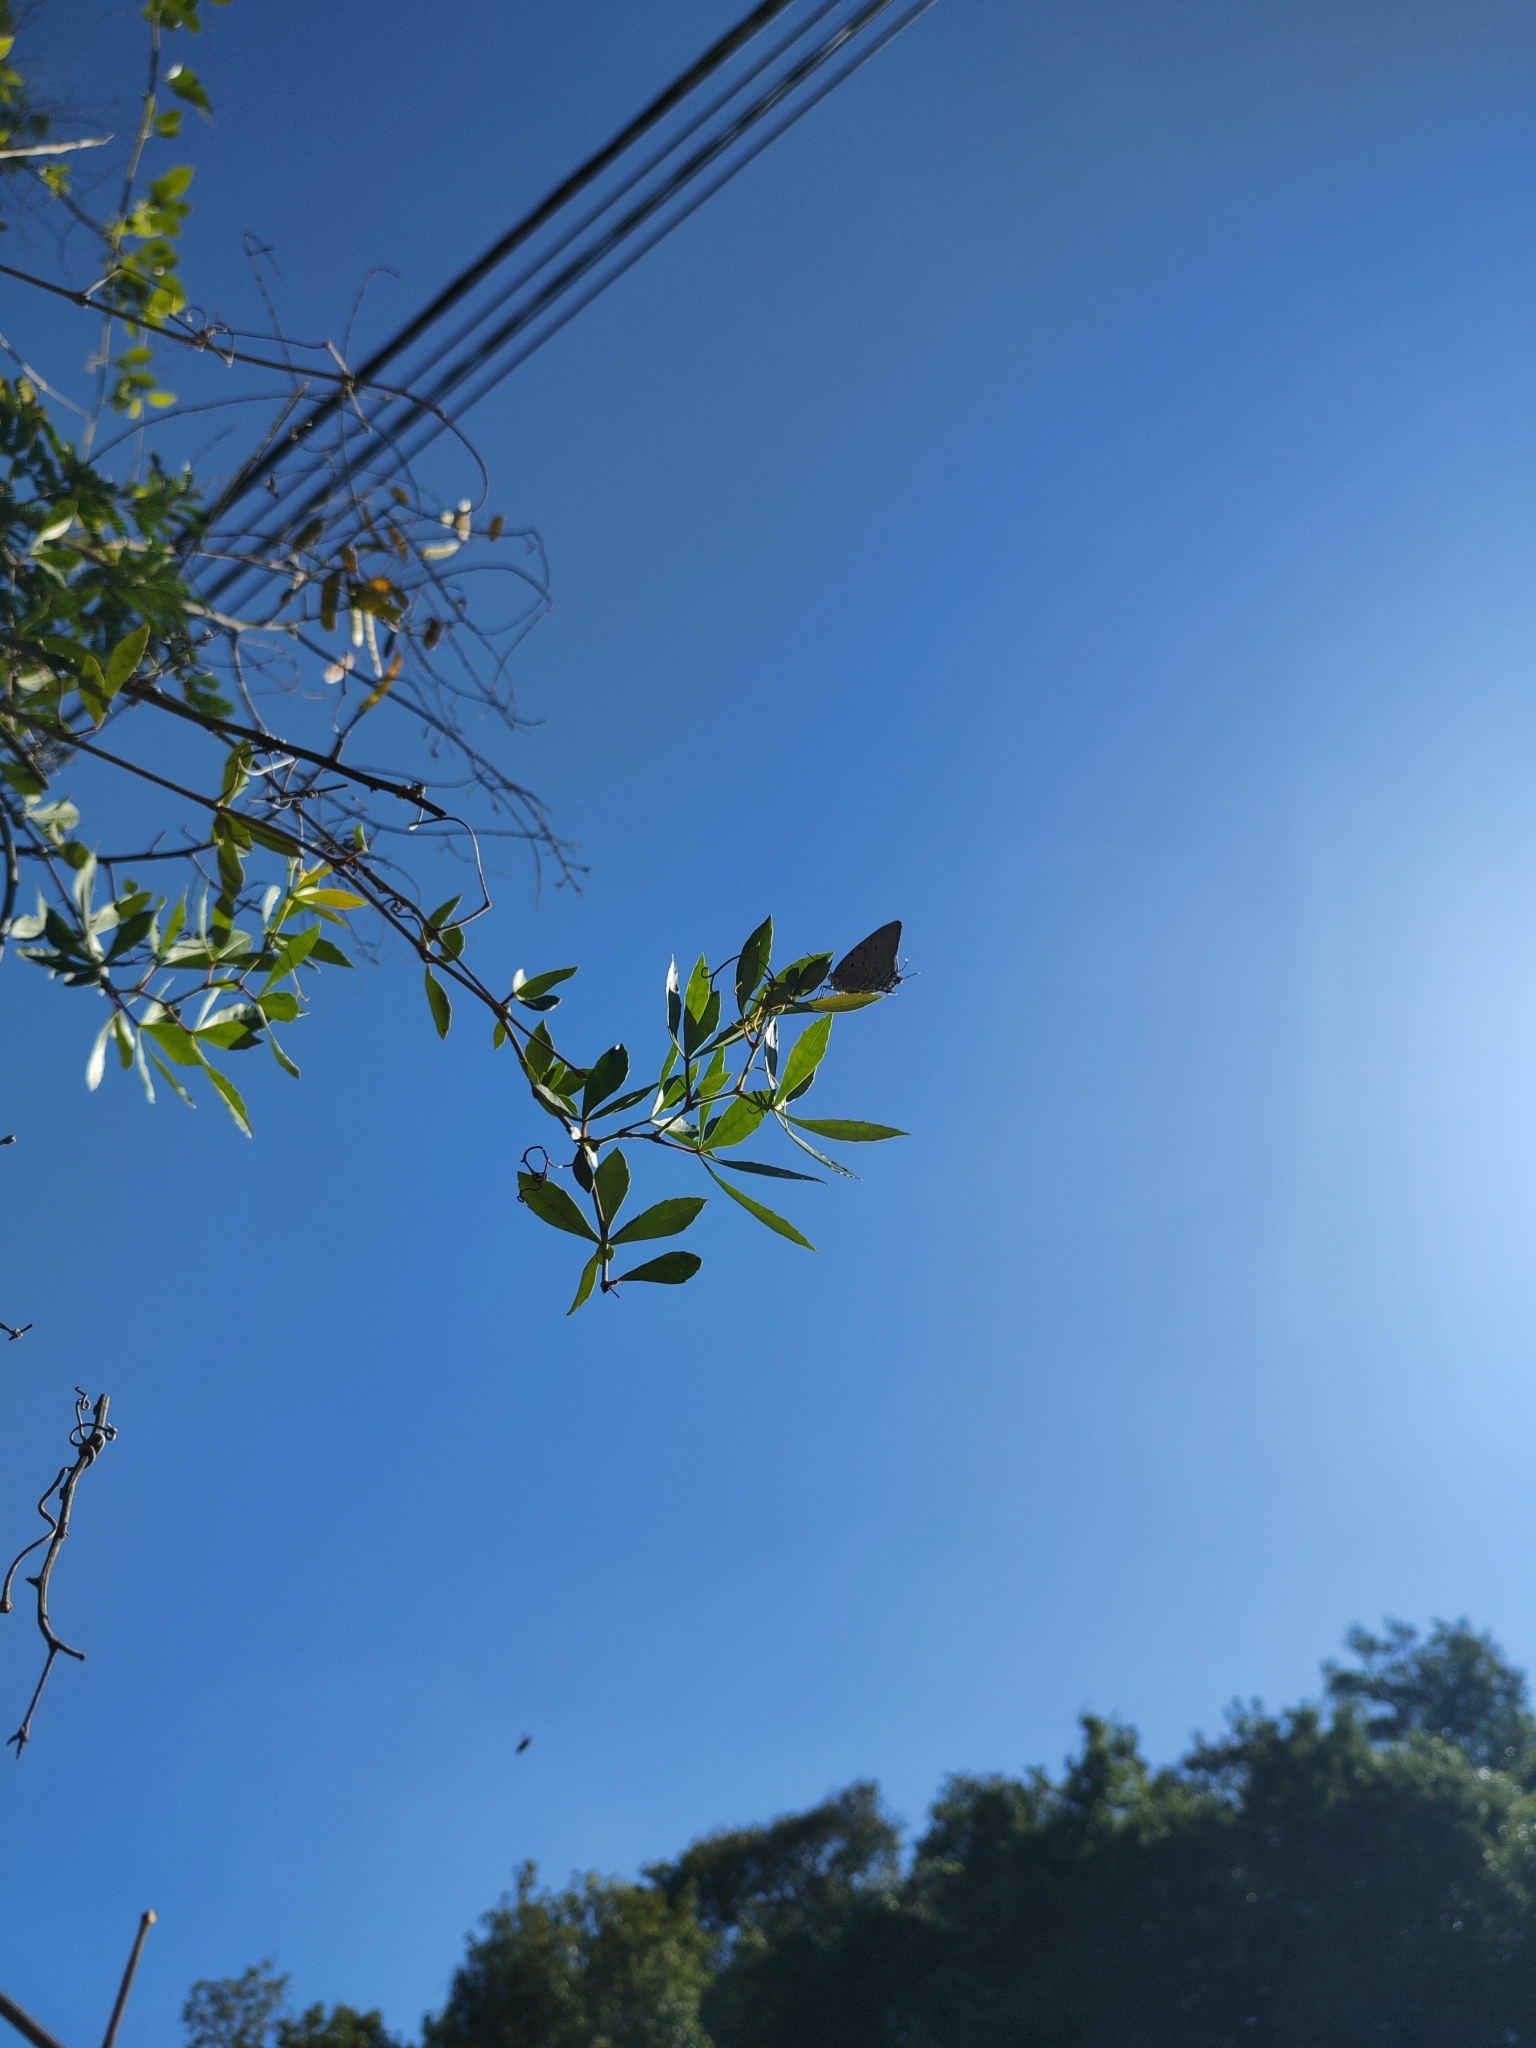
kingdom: Animalia
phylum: Arthropoda
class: Insecta
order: Lepidoptera
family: Lycaenidae
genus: Pseudolycaena
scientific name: Pseudolycaena marsyas
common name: Marsyas hairstreak
